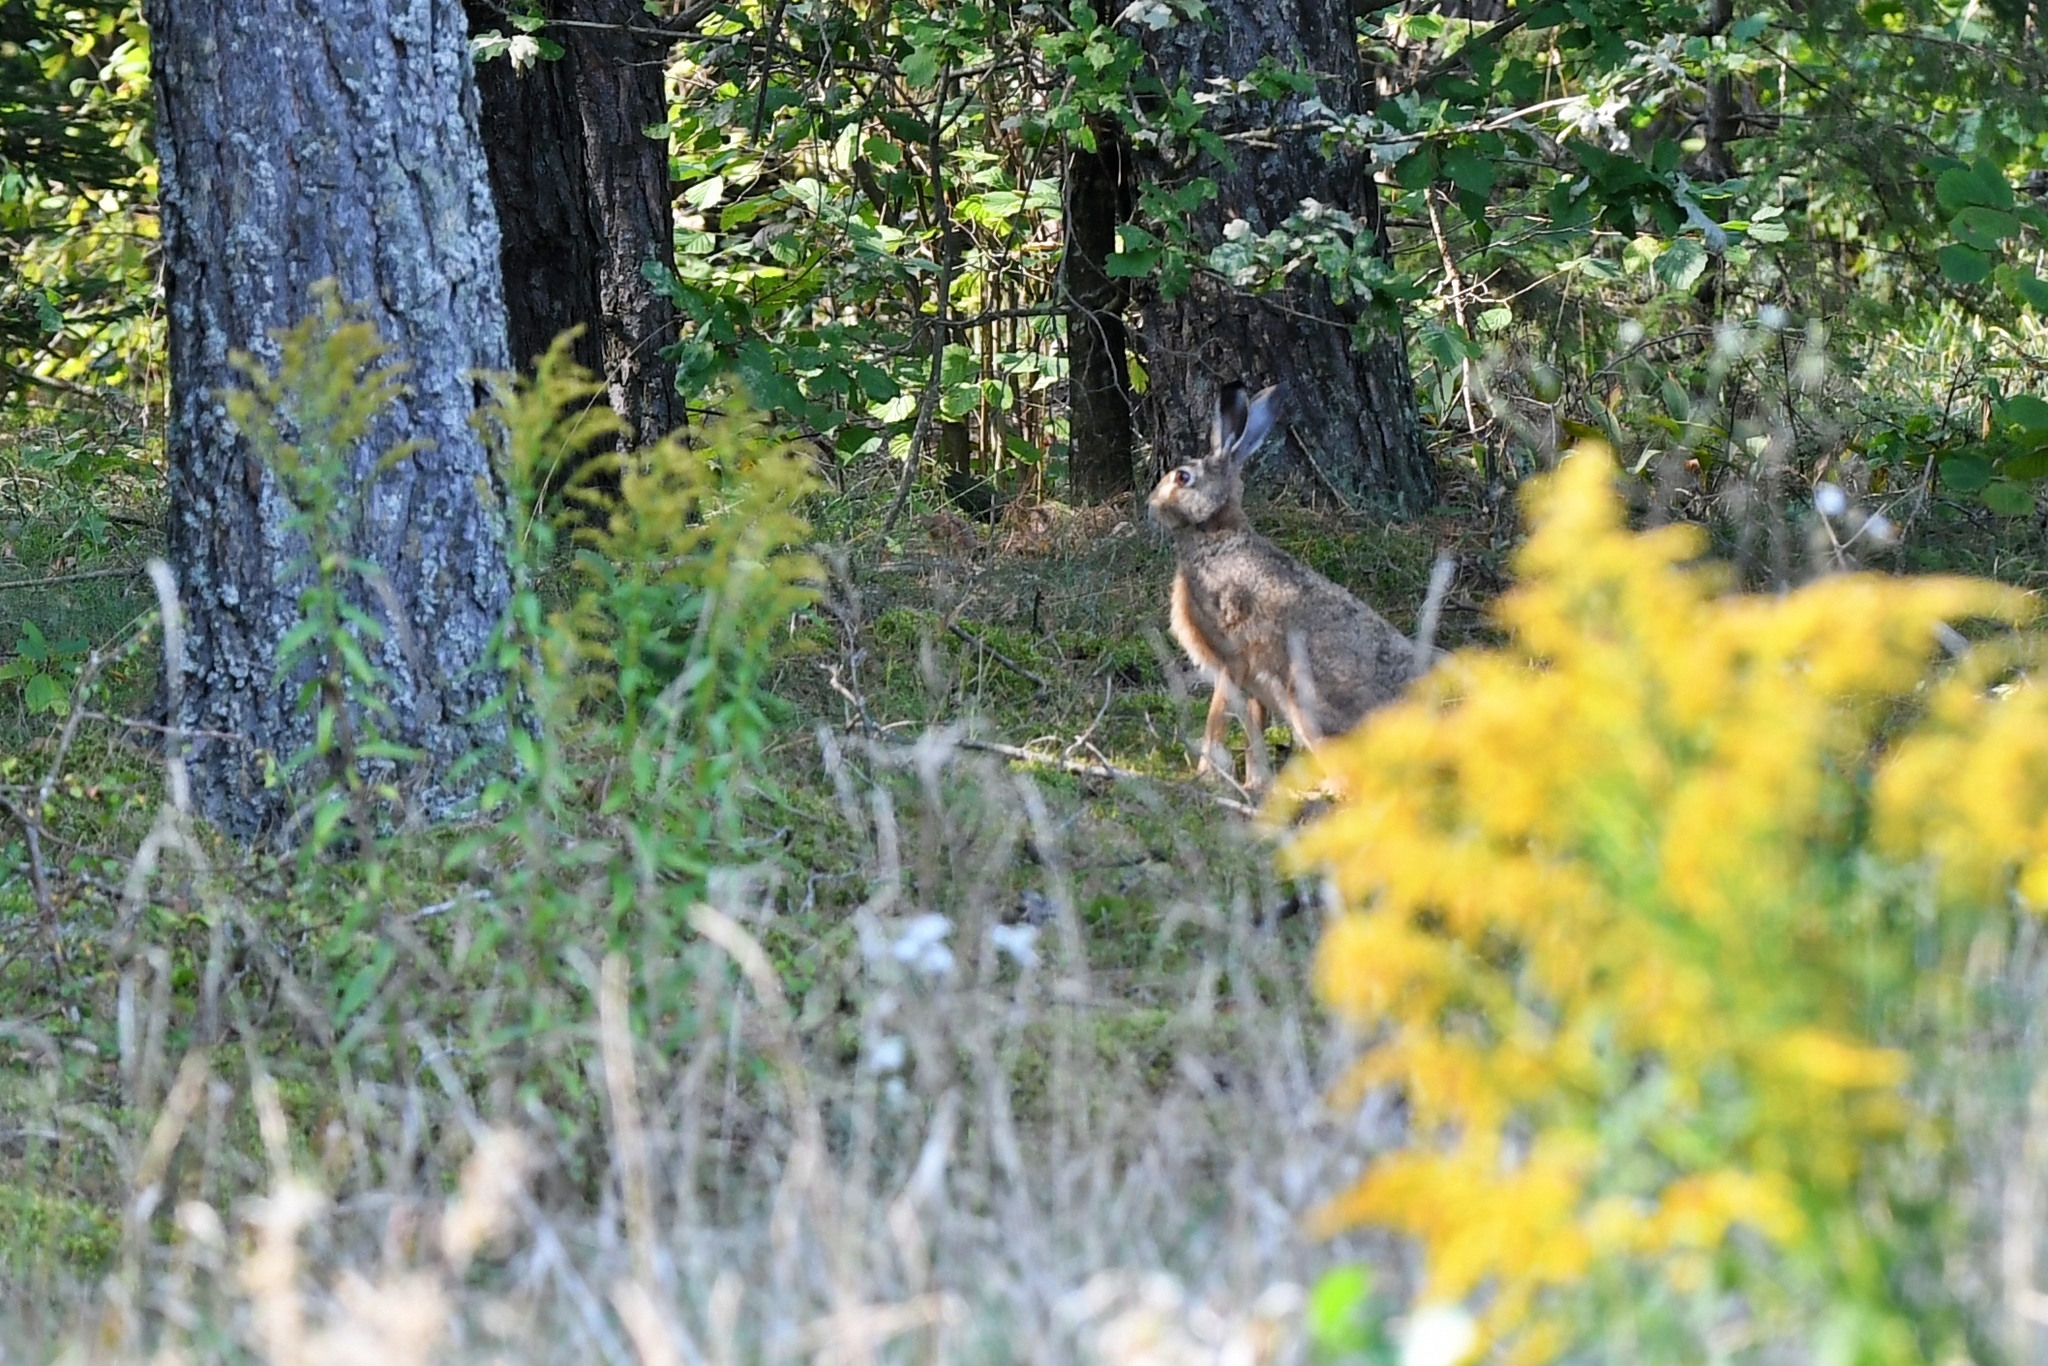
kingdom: Animalia
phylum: Chordata
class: Mammalia
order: Lagomorpha
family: Leporidae
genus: Lepus
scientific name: Lepus europaeus
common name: European hare
